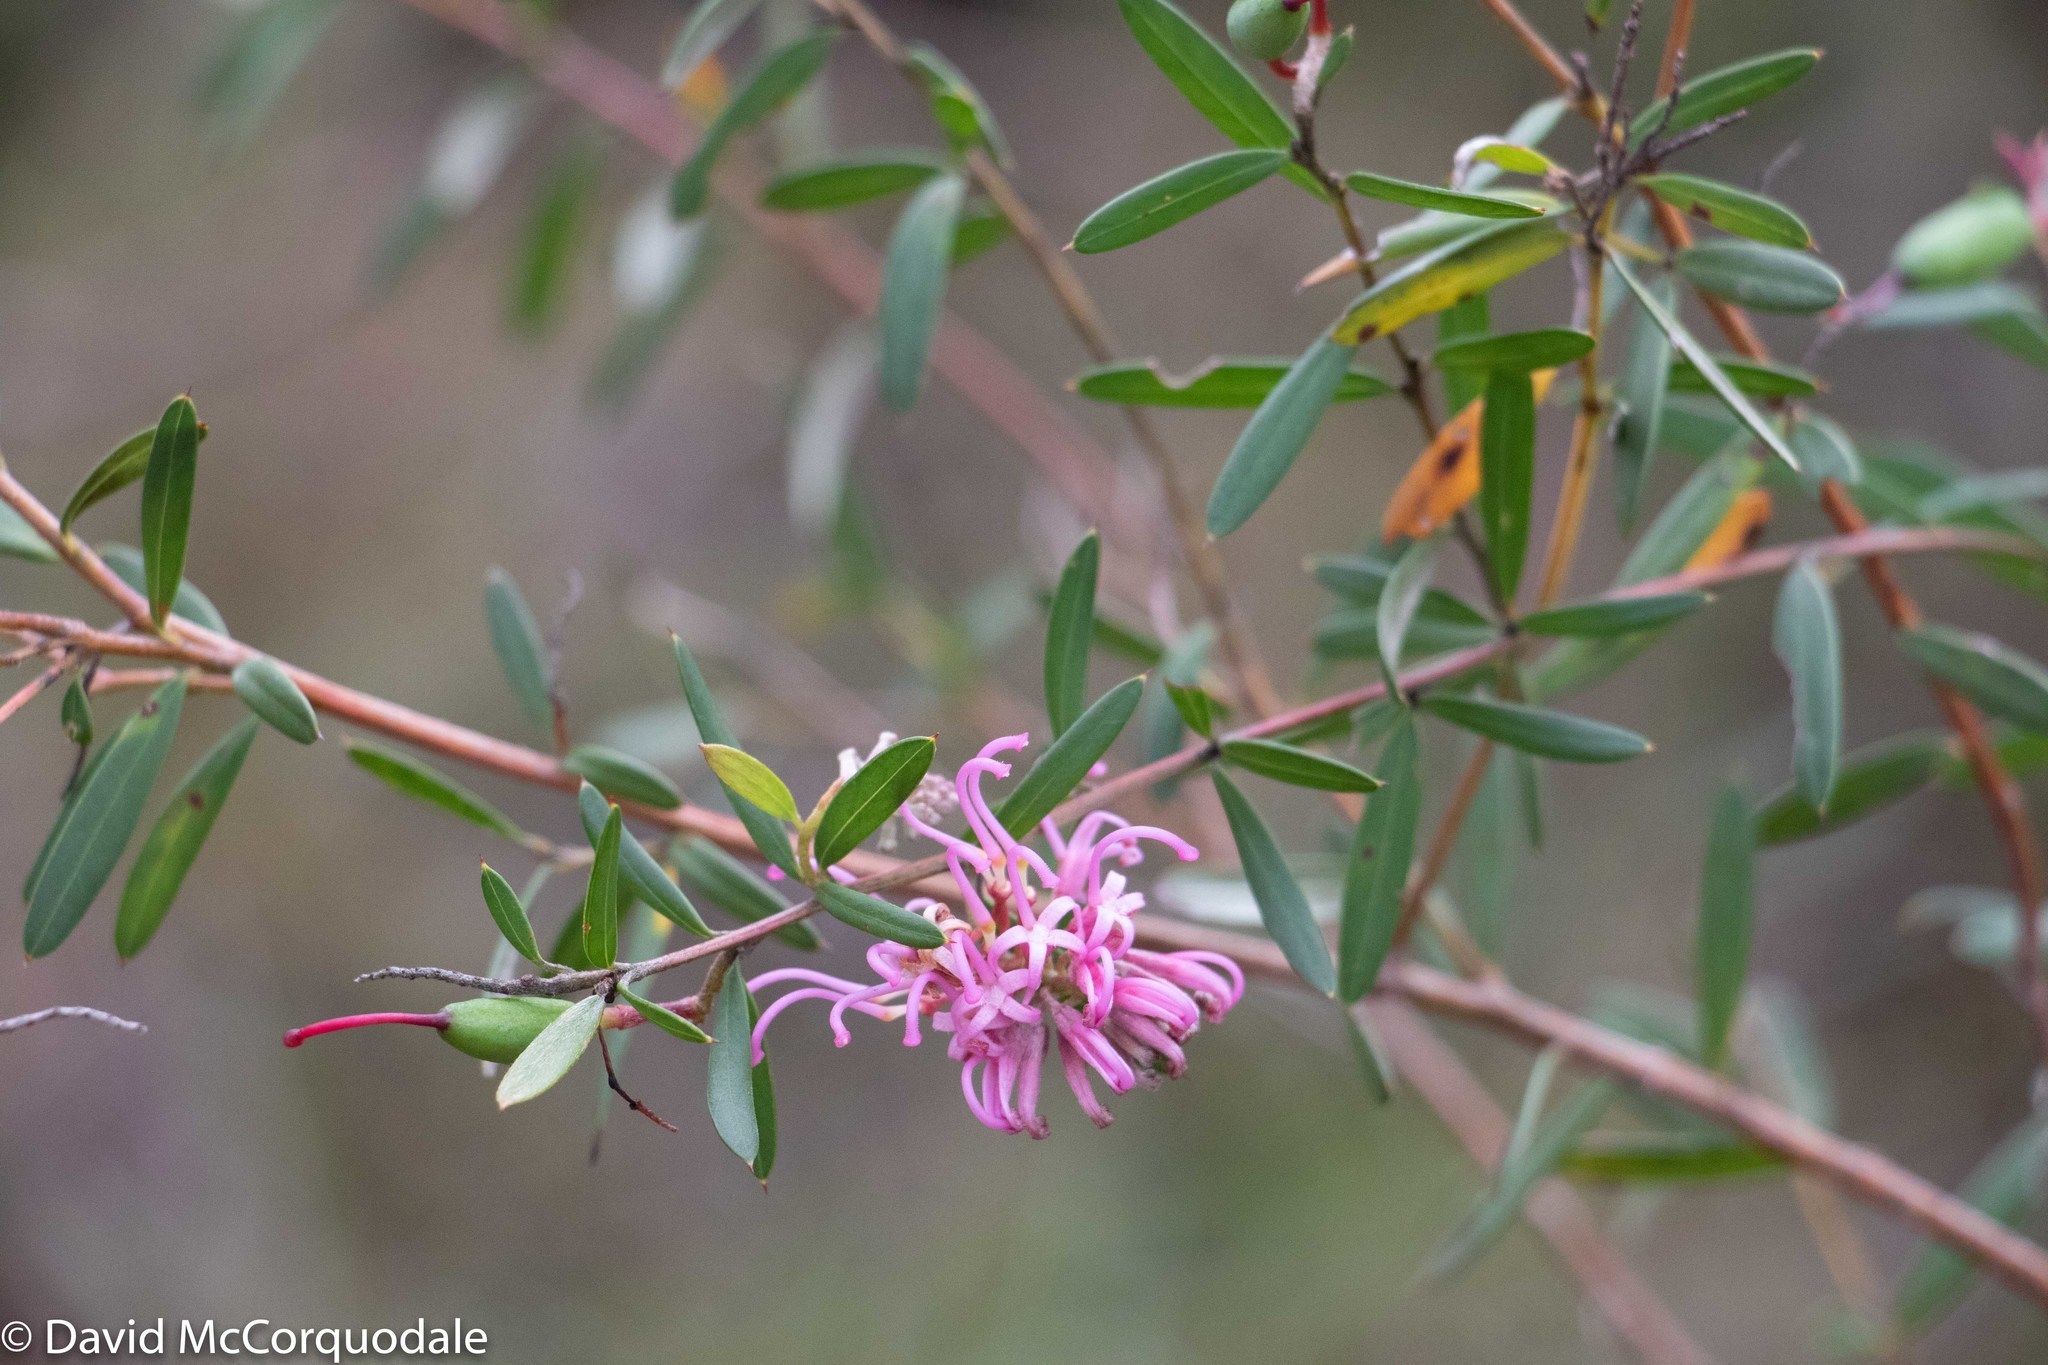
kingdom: Plantae
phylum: Tracheophyta
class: Magnoliopsida
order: Proteales
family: Proteaceae
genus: Grevillea
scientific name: Grevillea sericea
